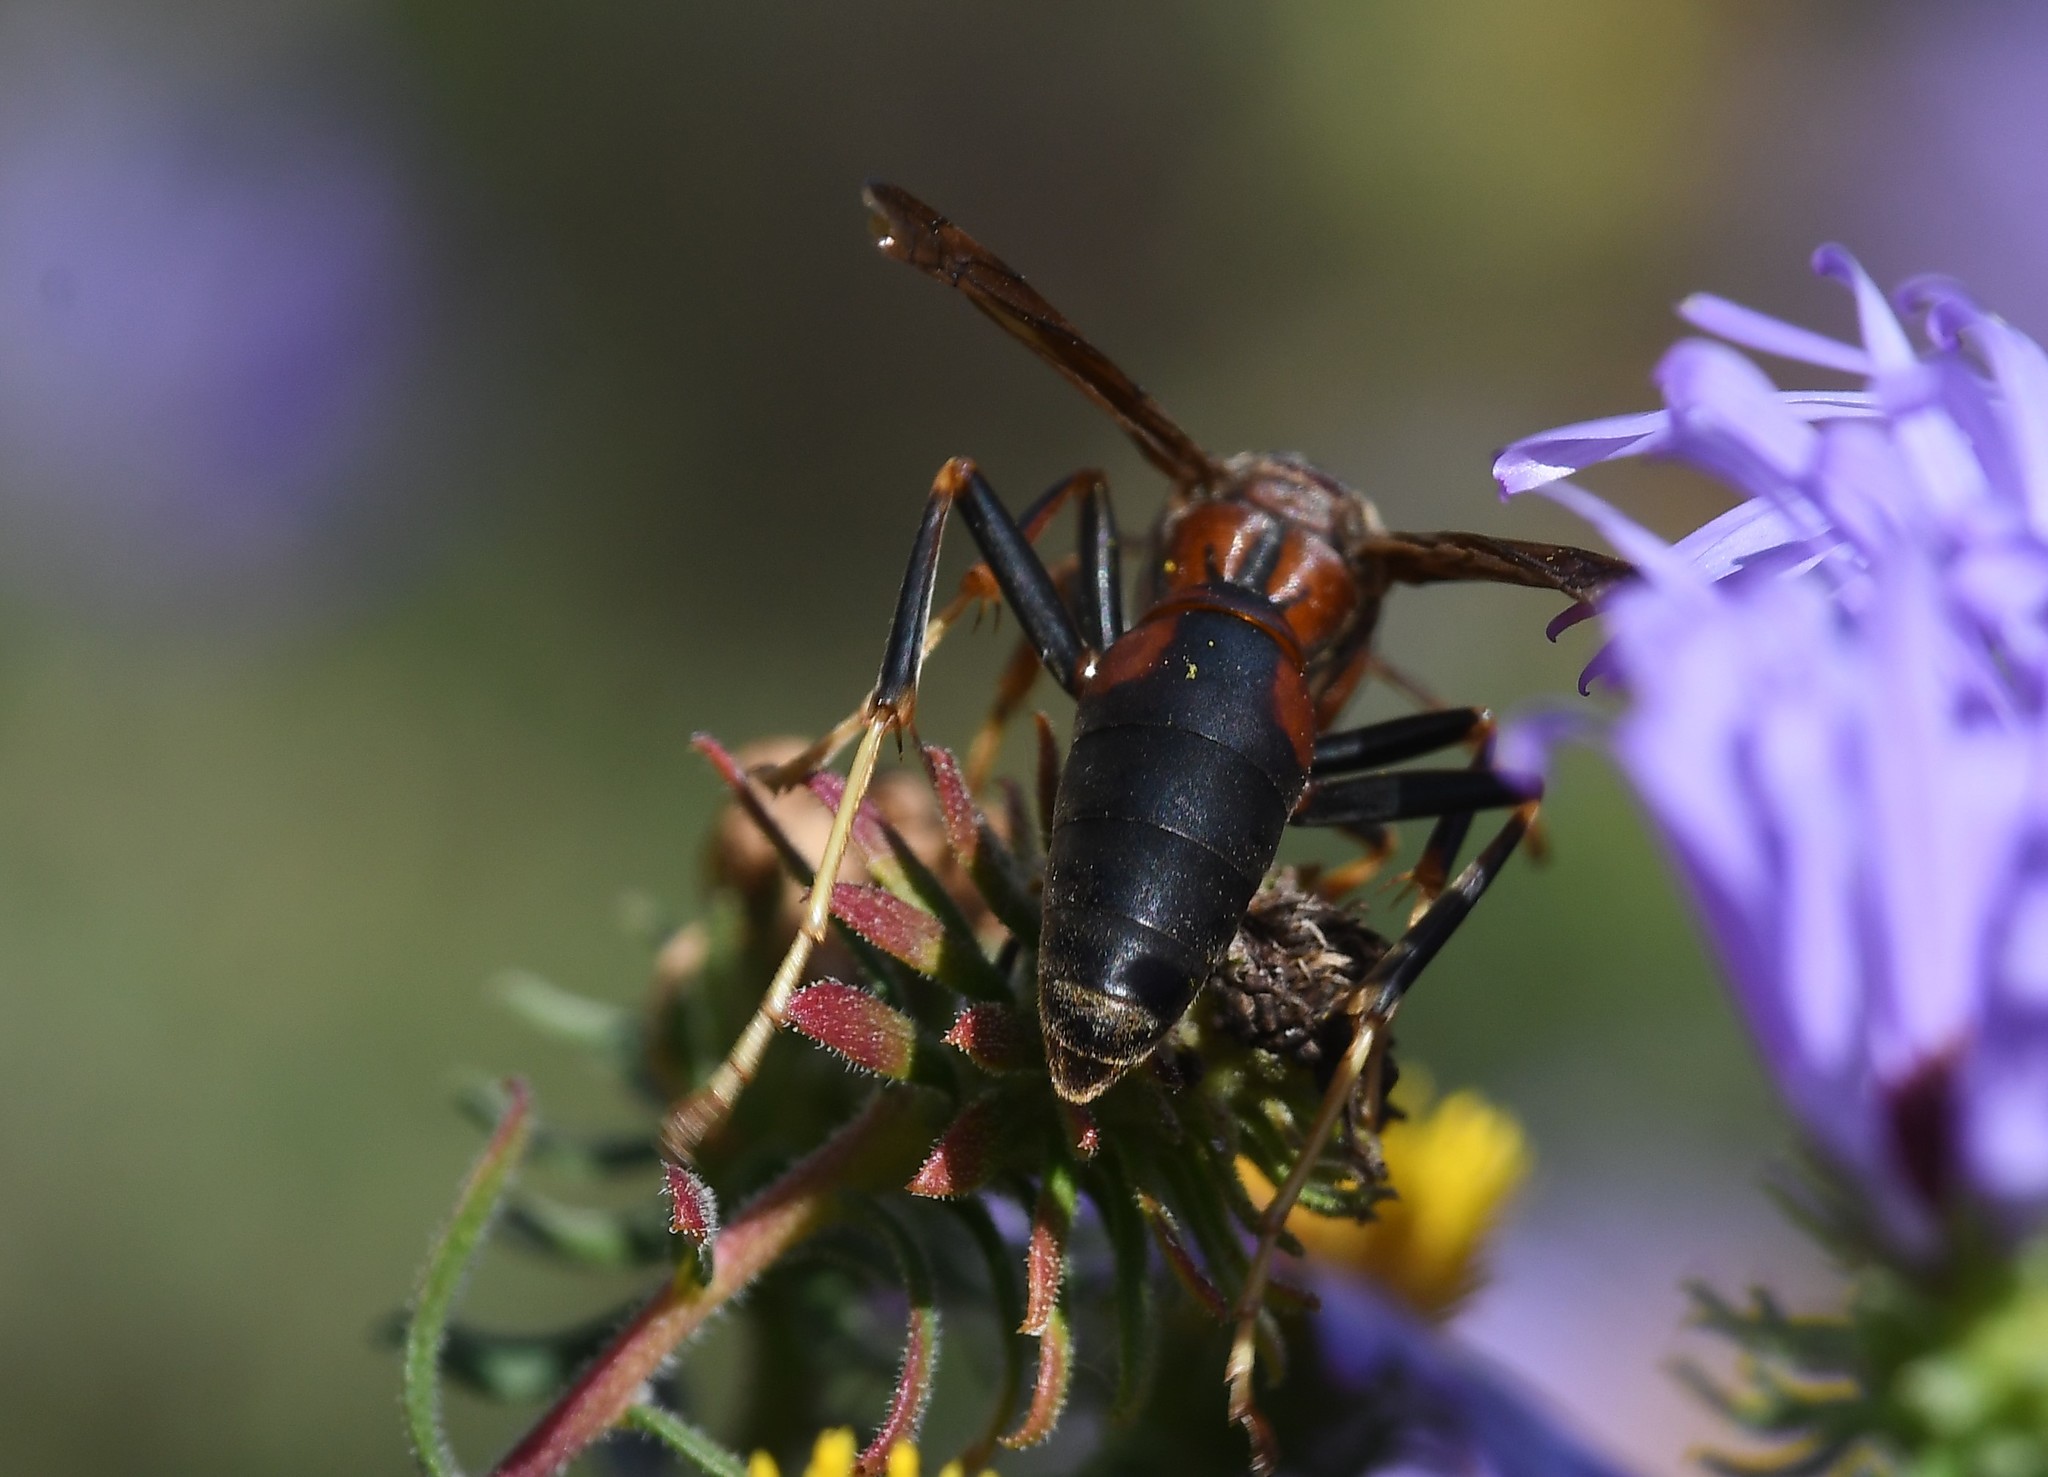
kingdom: Animalia
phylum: Arthropoda
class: Insecta
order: Hymenoptera
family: Eumenidae
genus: Polistes
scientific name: Polistes metricus
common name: Metric paper wasp
